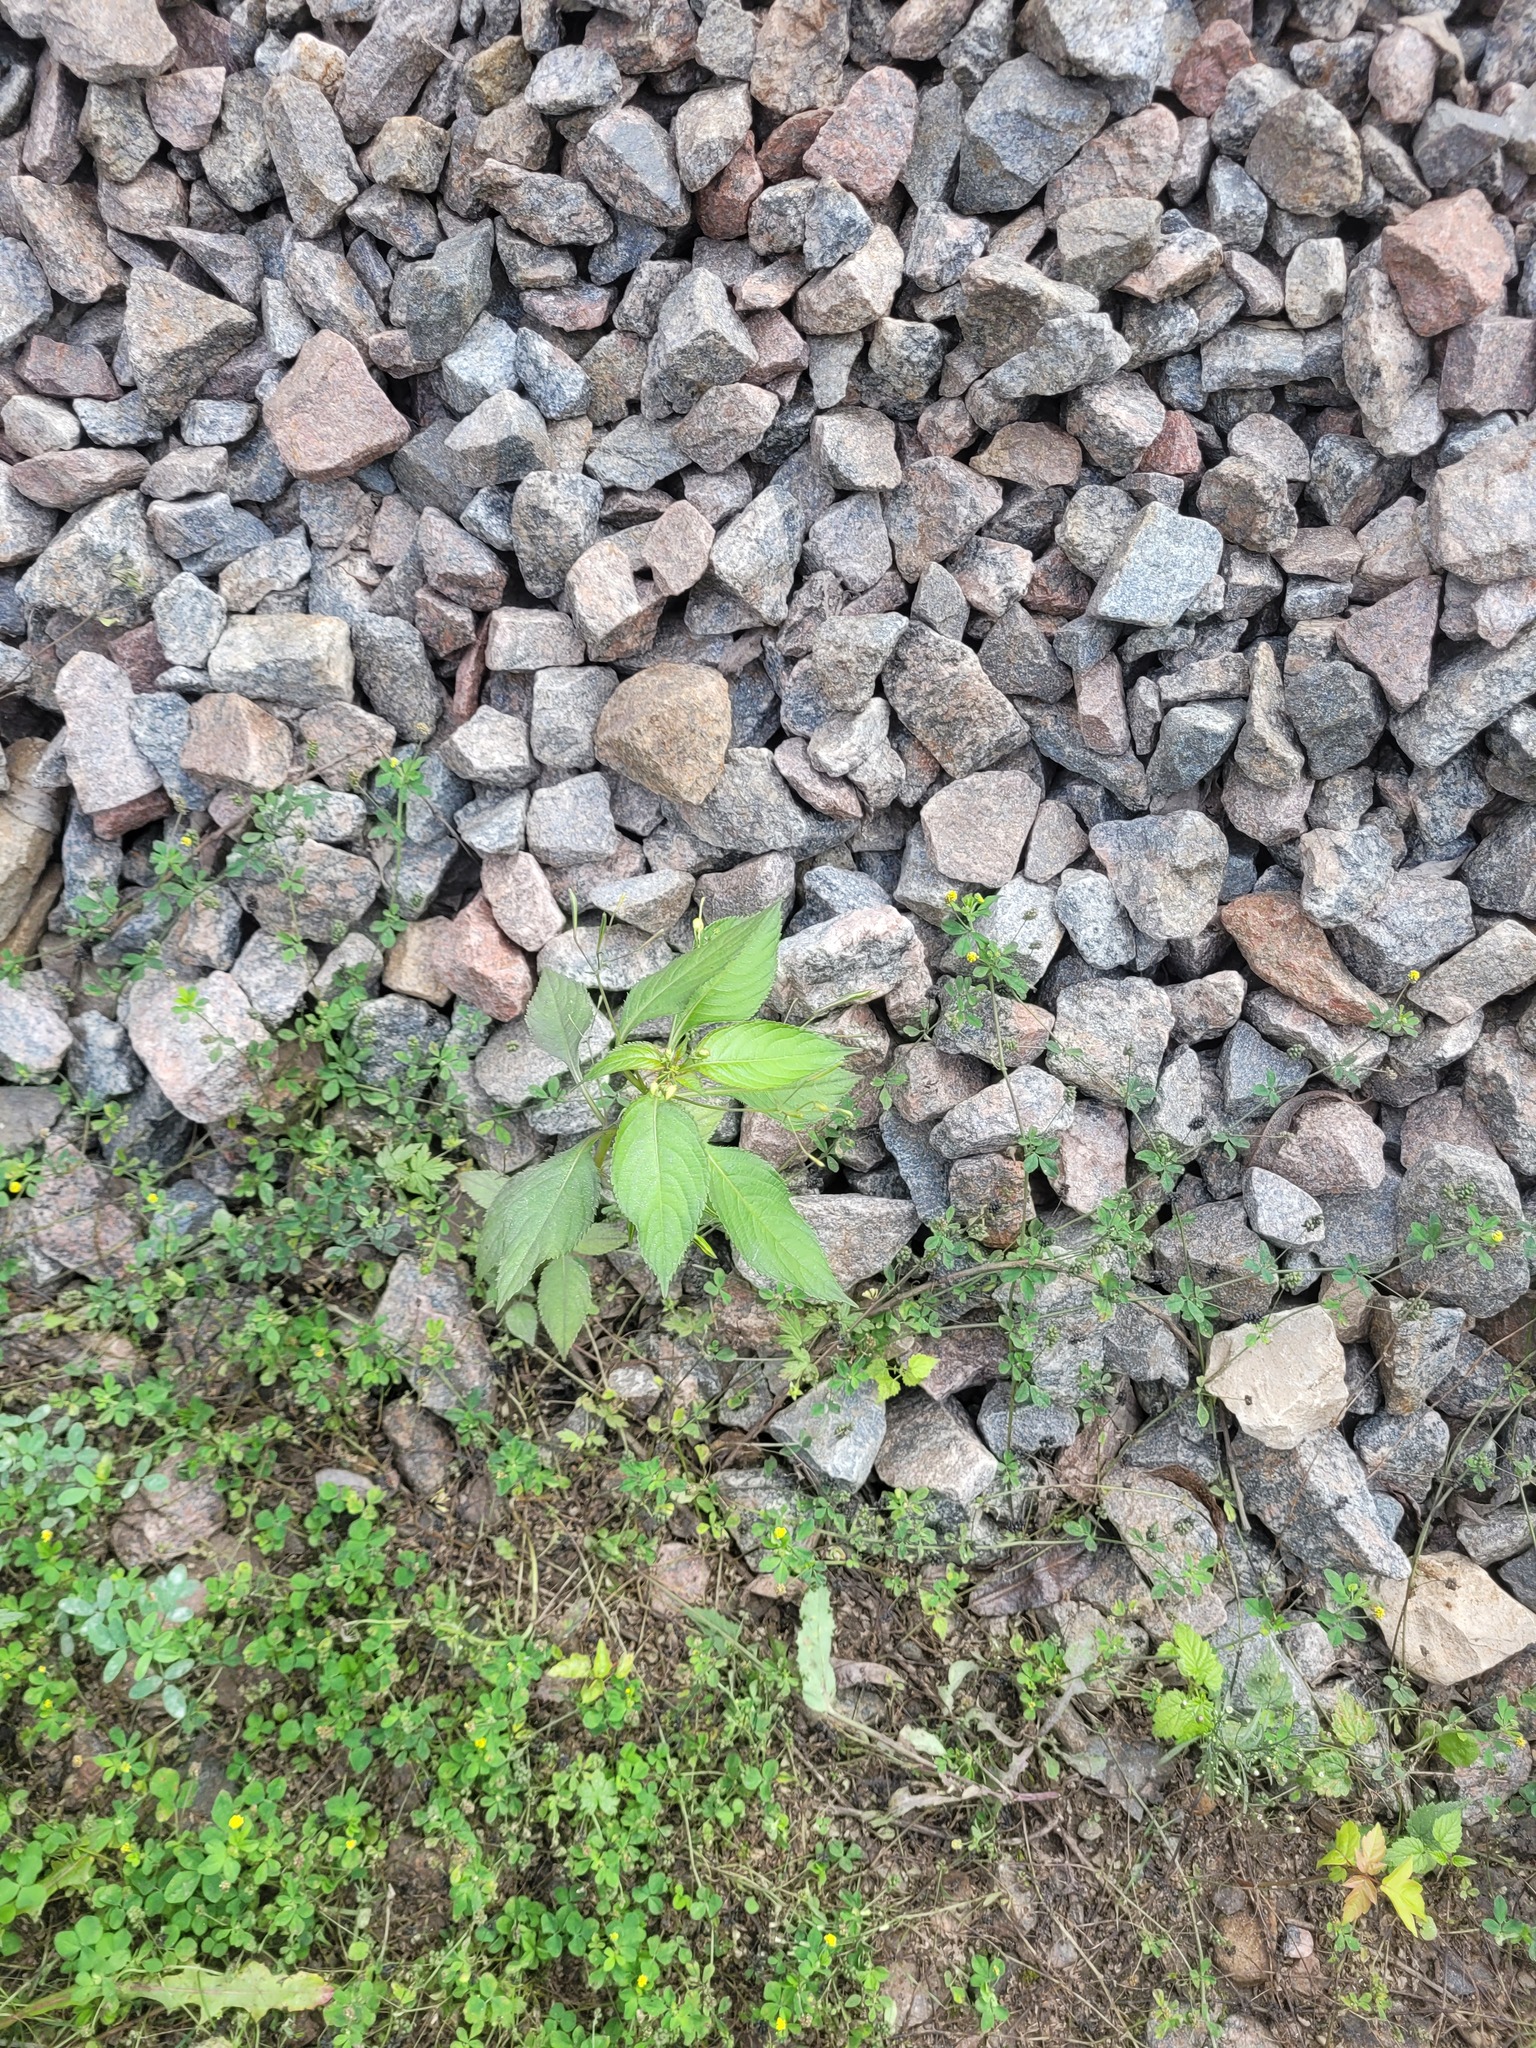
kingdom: Plantae
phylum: Tracheophyta
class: Magnoliopsida
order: Ericales
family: Balsaminaceae
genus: Impatiens
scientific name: Impatiens parviflora
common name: Small balsam
